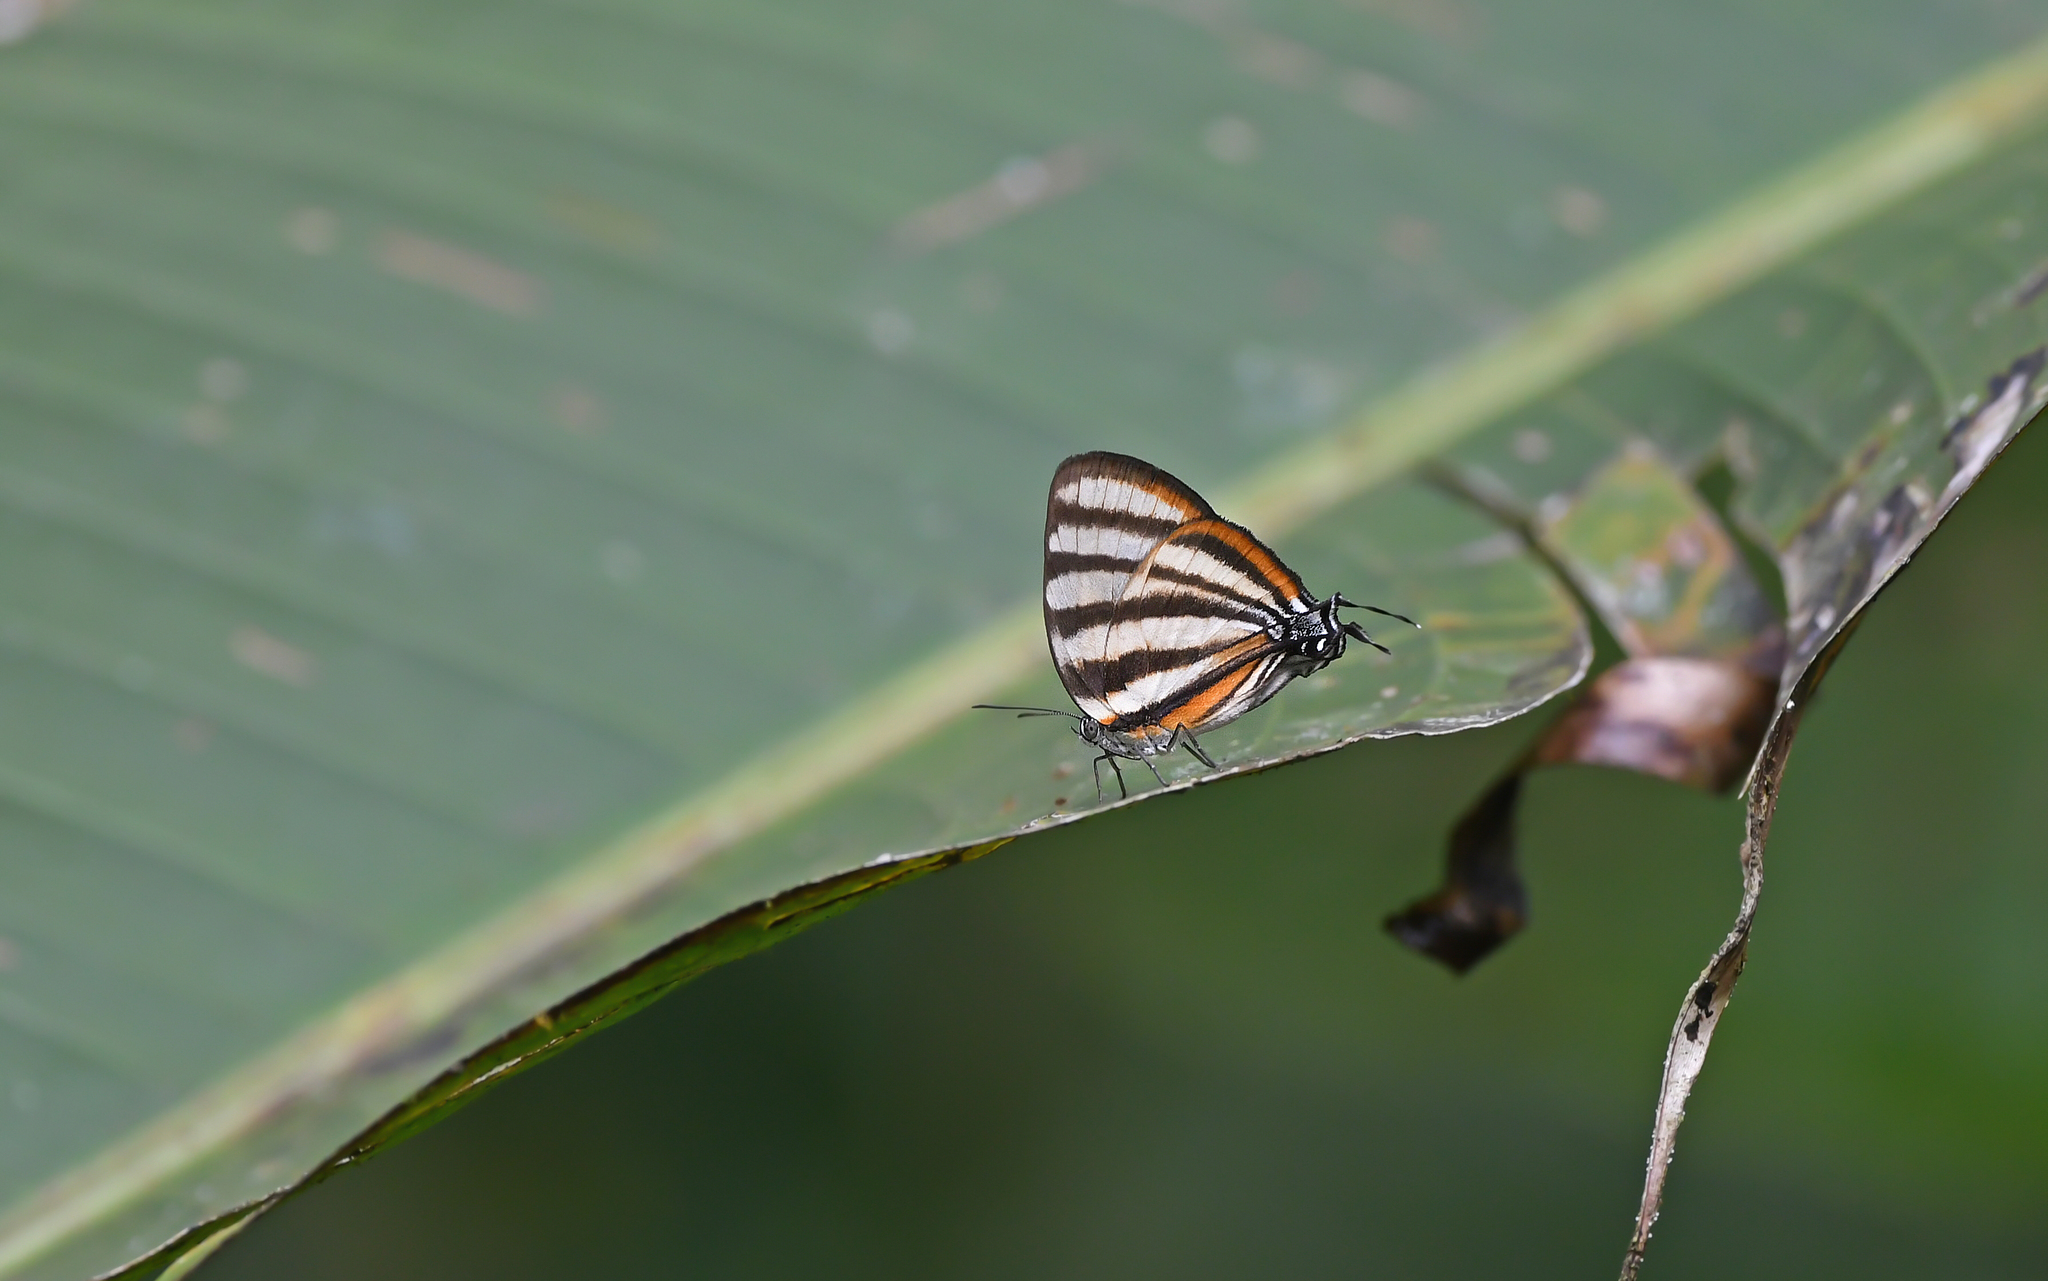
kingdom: Animalia
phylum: Arthropoda
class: Insecta
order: Lepidoptera
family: Lycaenidae
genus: Arawacus
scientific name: Arawacus separata
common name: Separated stripestreak
